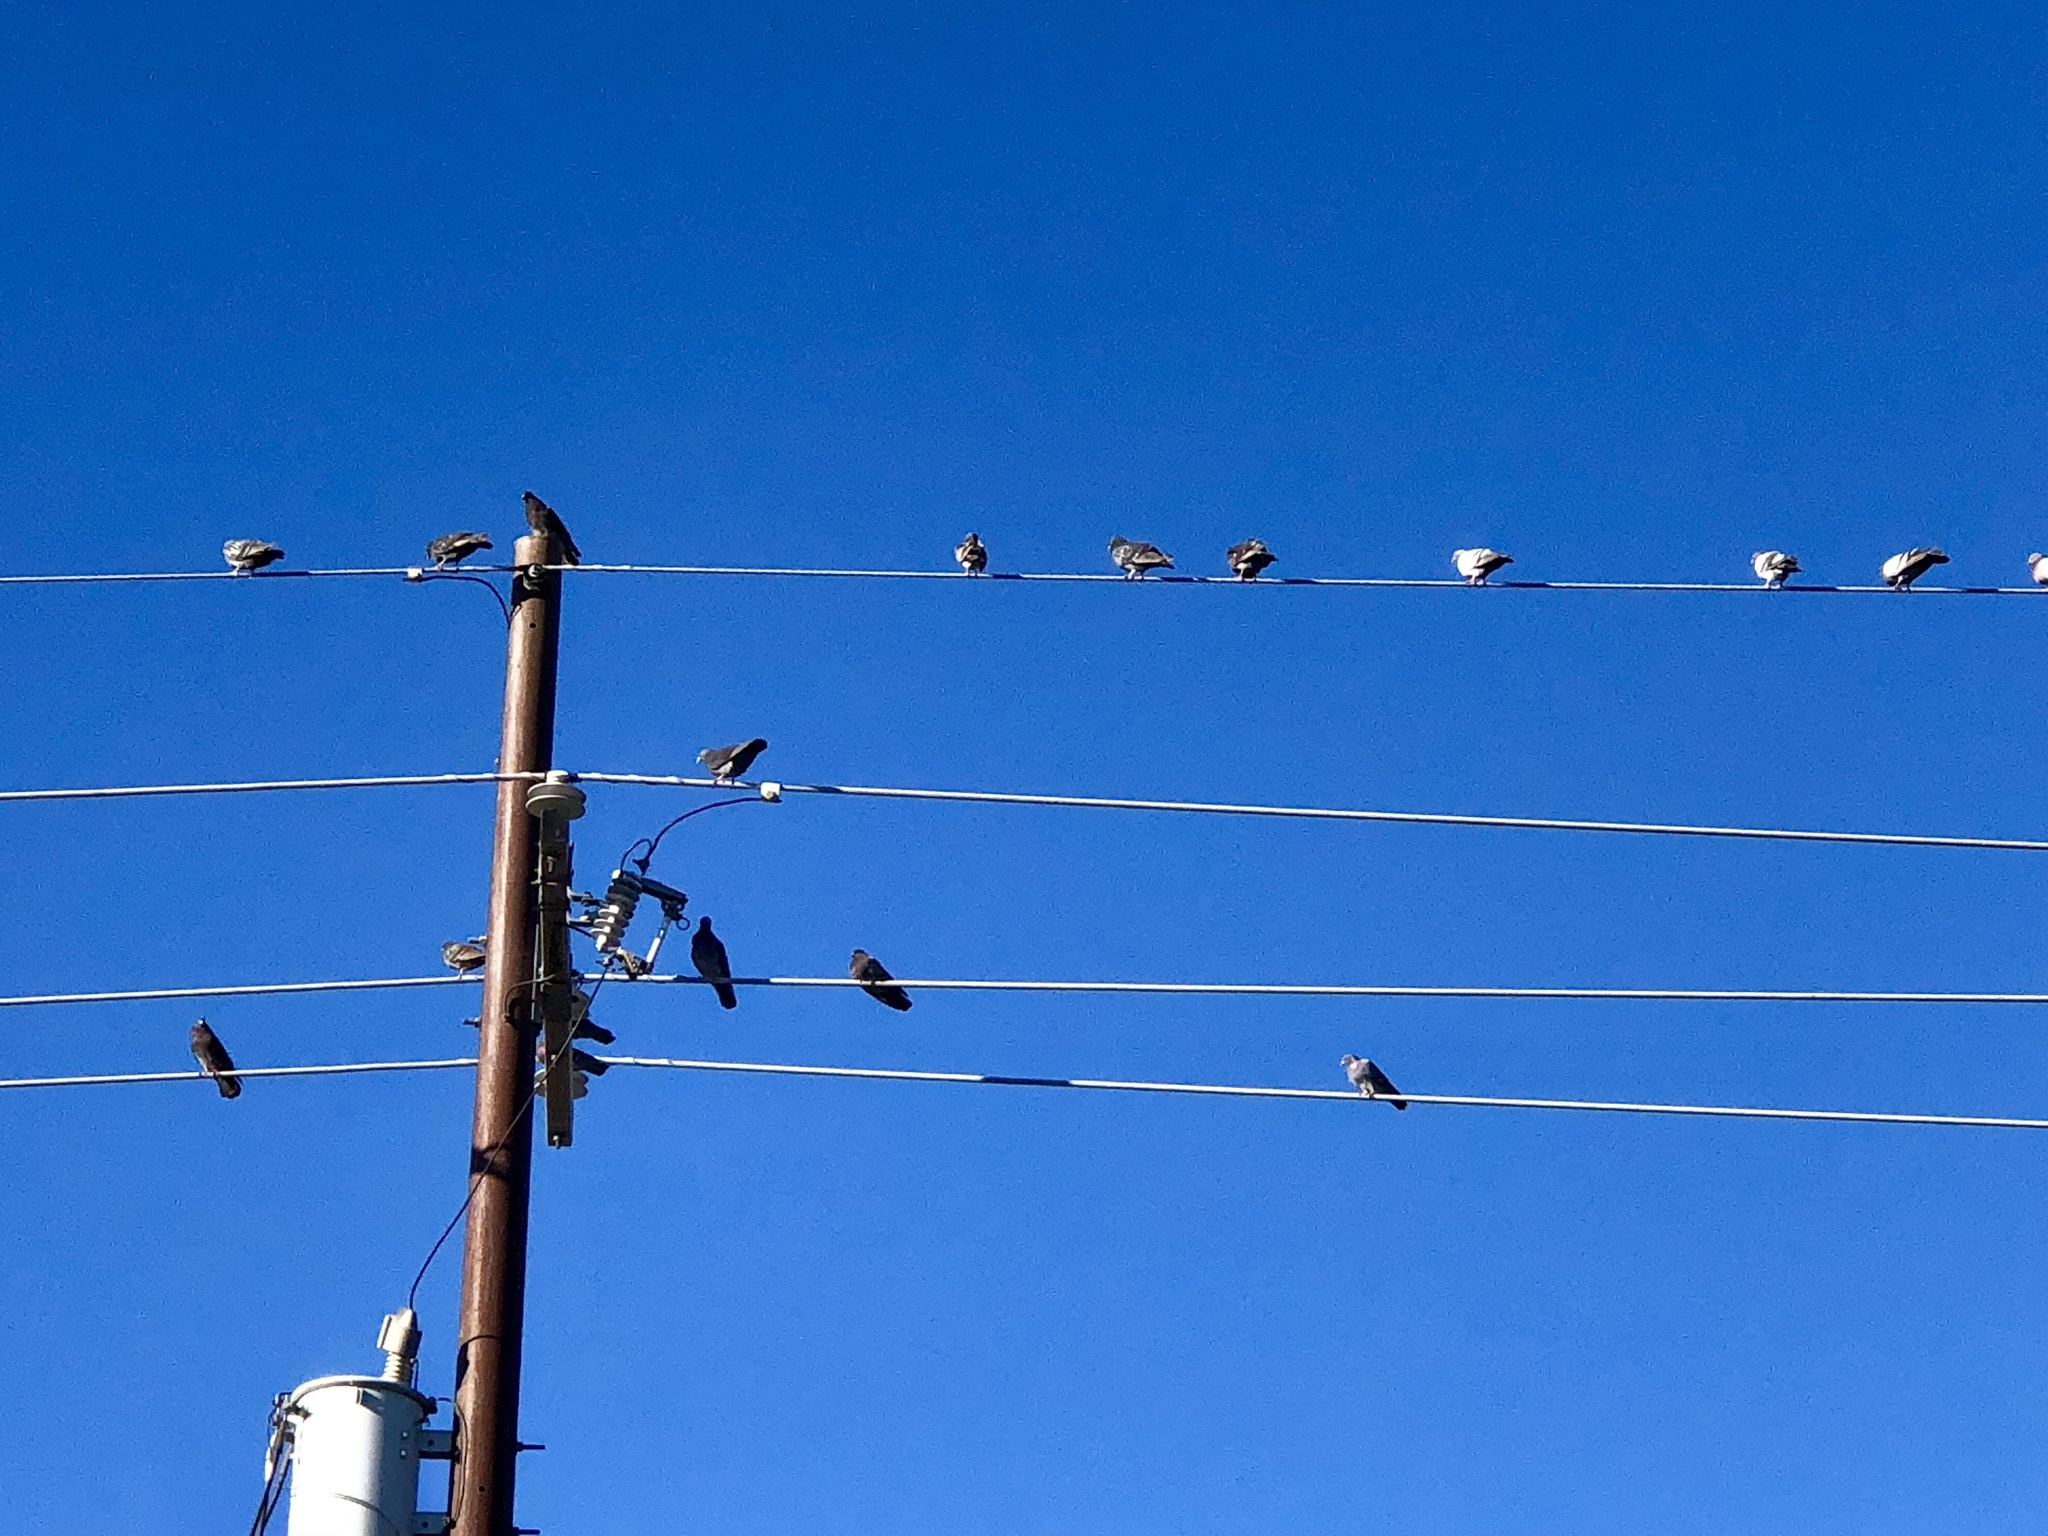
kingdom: Animalia
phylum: Chordata
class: Aves
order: Columbiformes
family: Columbidae
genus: Columba
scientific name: Columba livia
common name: Rock pigeon
